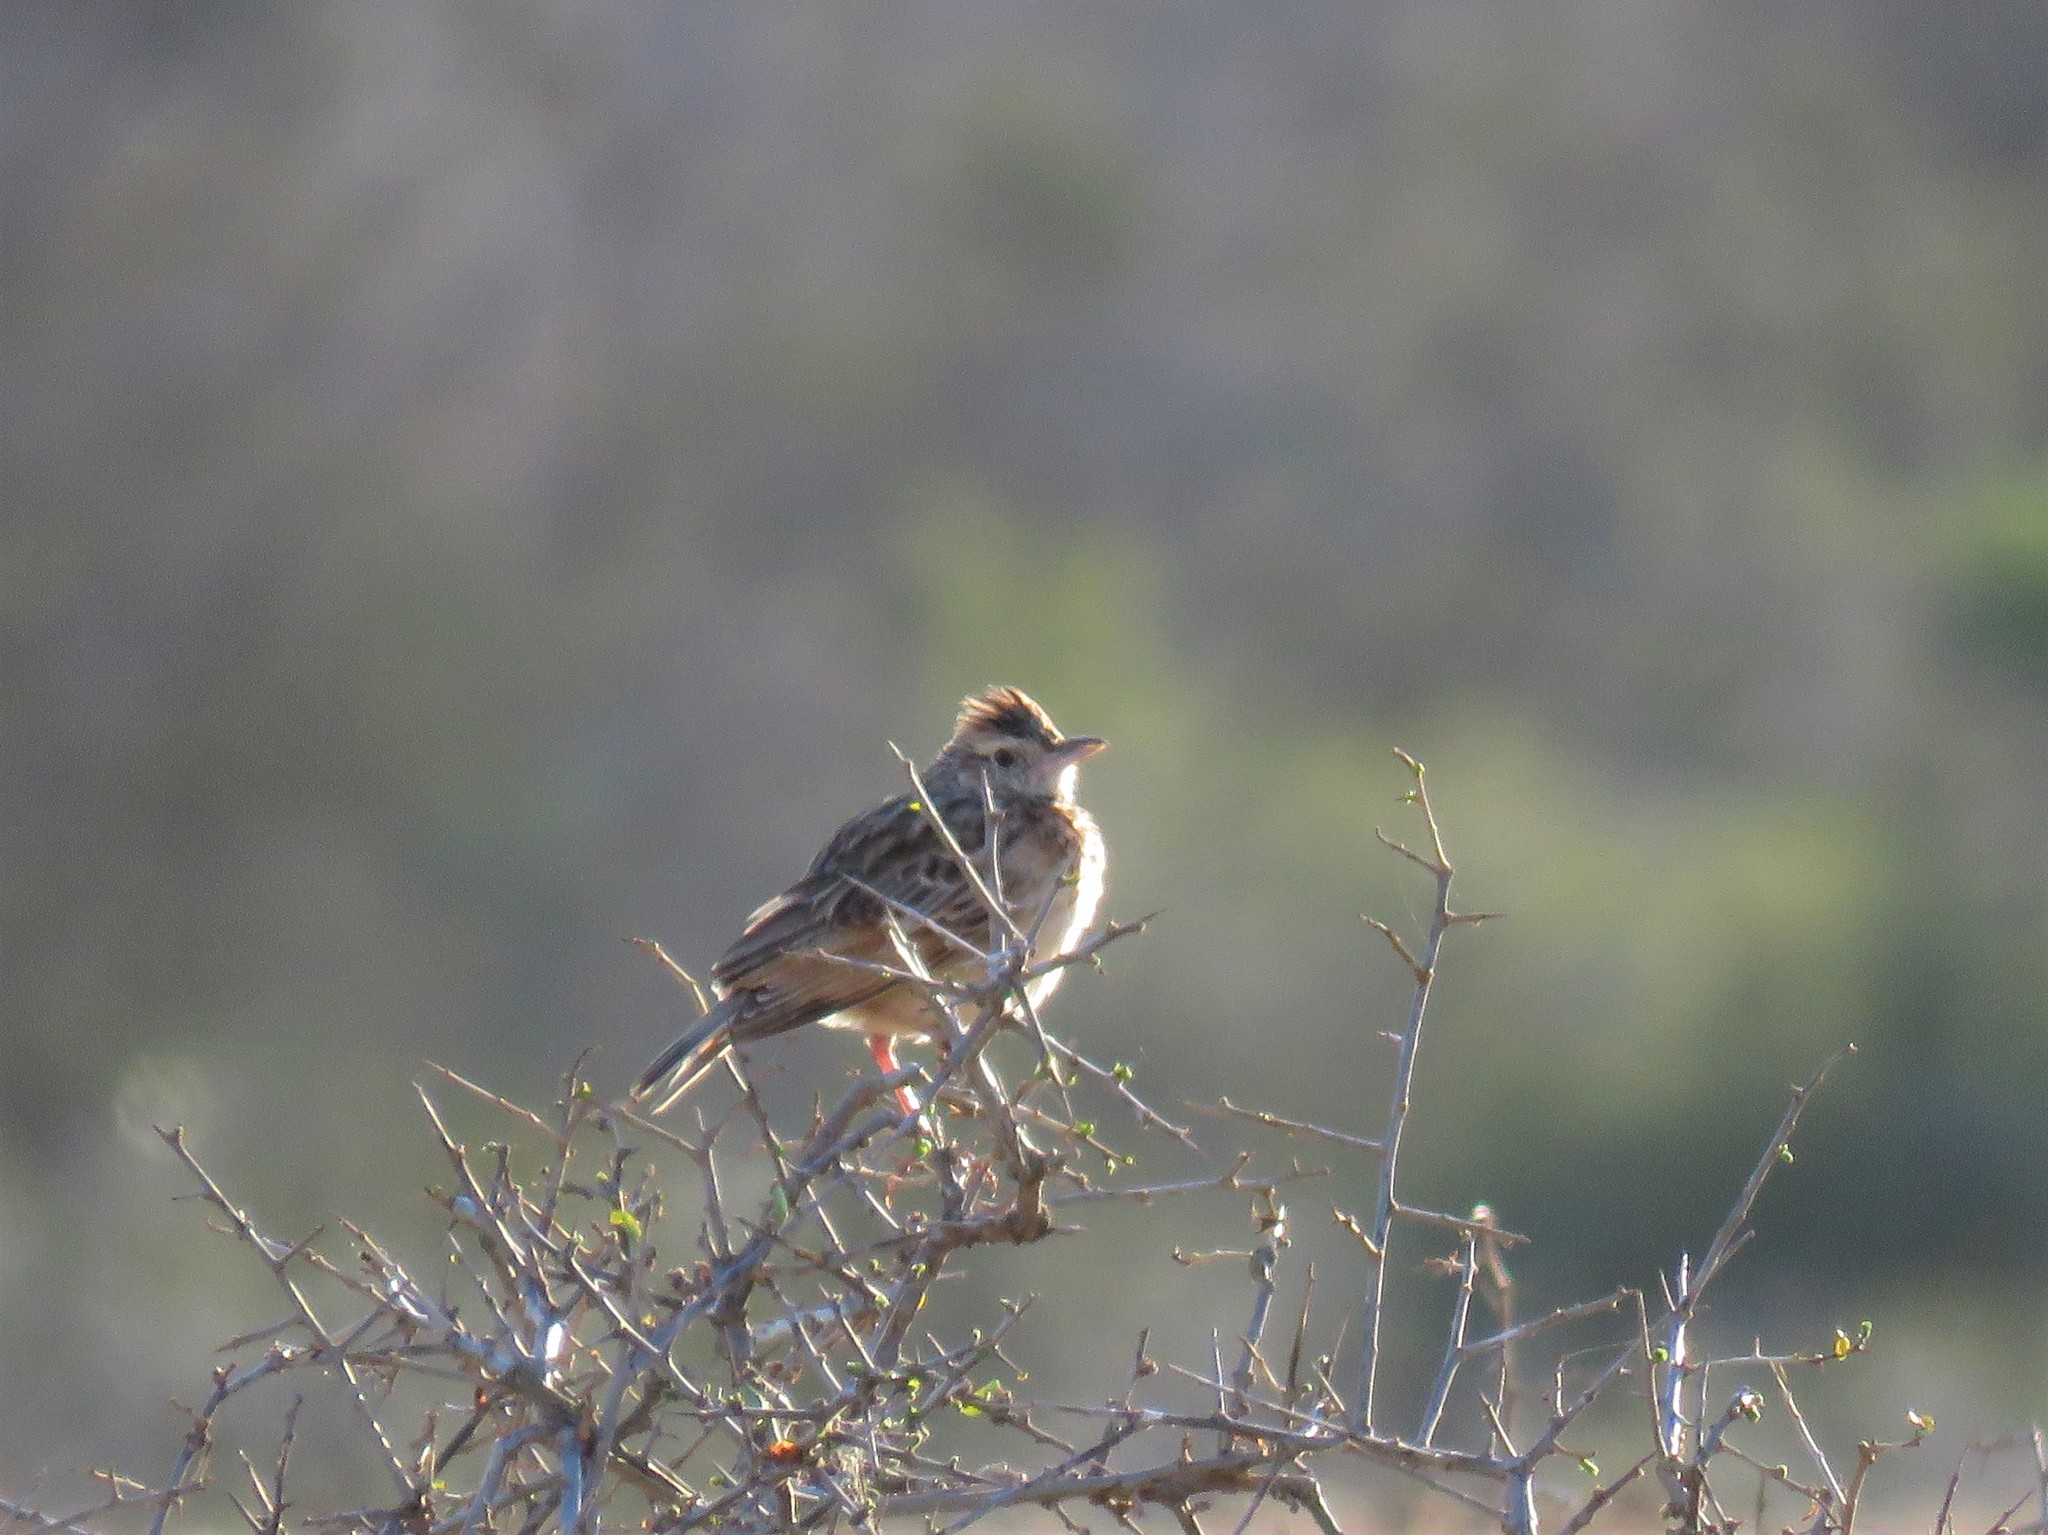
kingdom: Animalia
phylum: Chordata
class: Aves
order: Passeriformes
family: Alaudidae
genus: Mirafra
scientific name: Mirafra africana
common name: Rufous-naped lark
